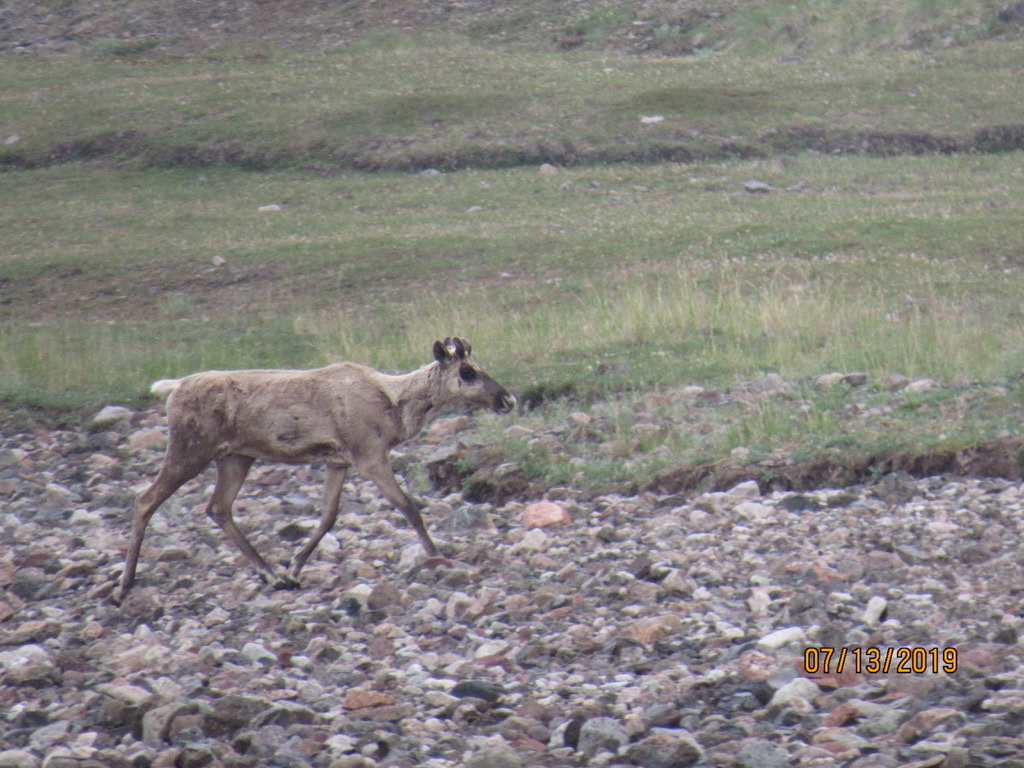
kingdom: Animalia
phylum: Chordata
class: Mammalia
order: Artiodactyla
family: Cervidae
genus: Rangifer
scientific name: Rangifer tarandus
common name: Reindeer
